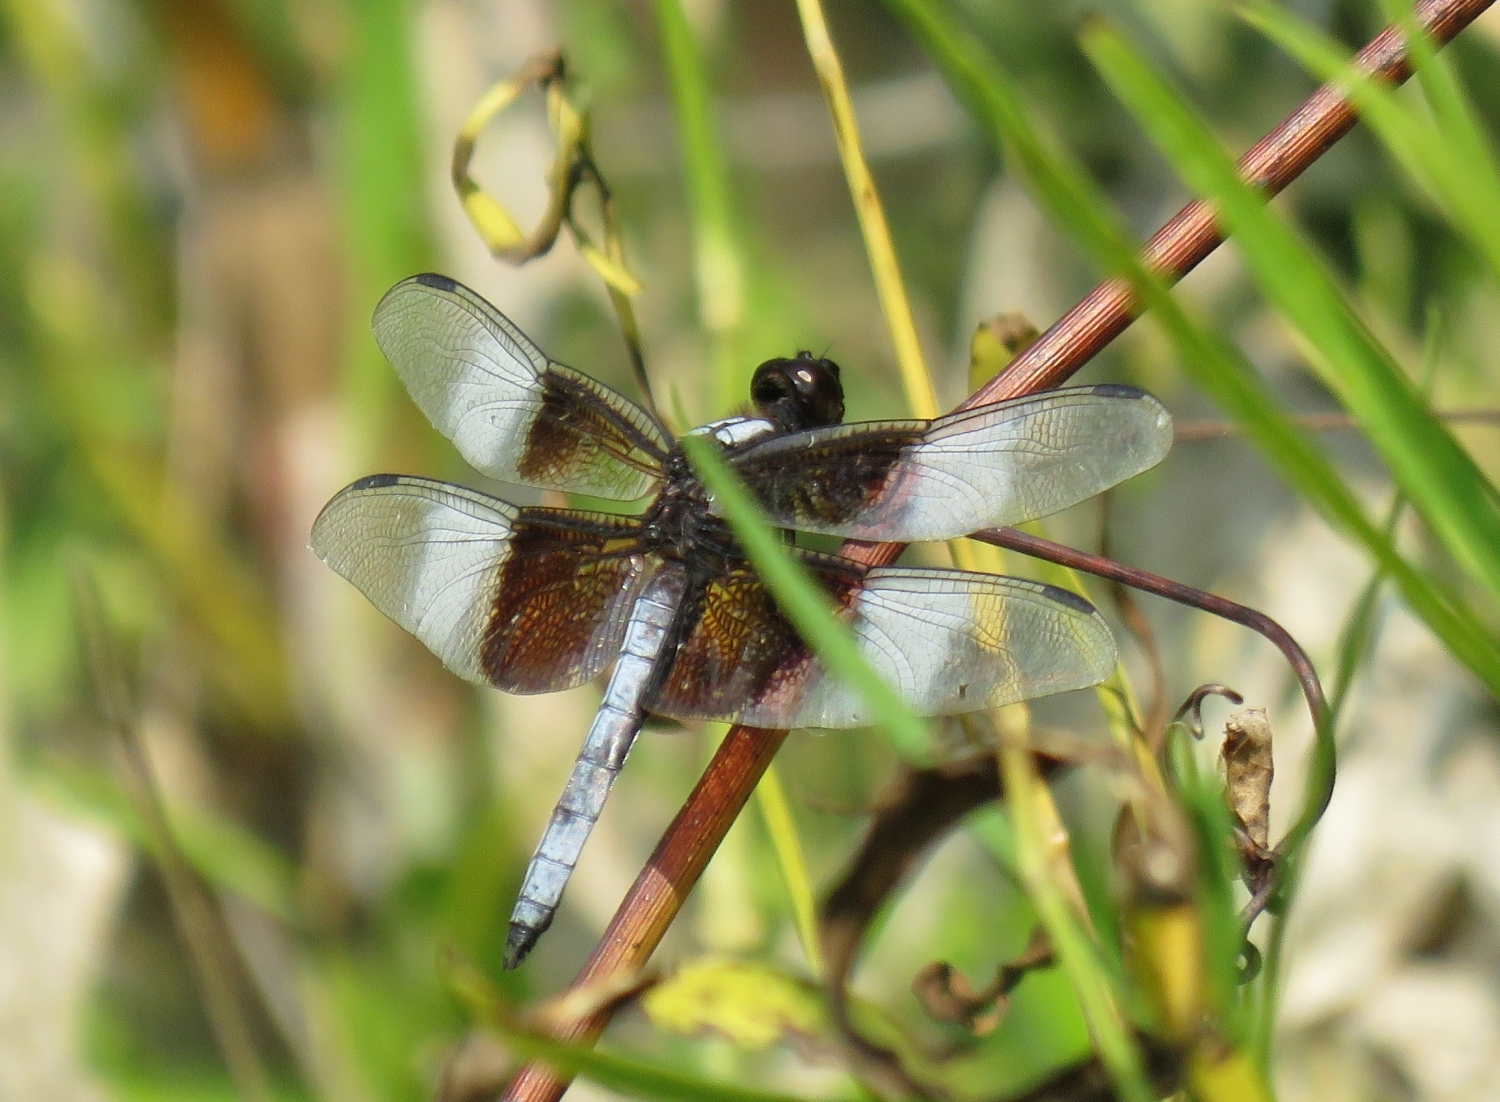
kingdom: Animalia
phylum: Arthropoda
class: Insecta
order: Odonata
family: Libellulidae
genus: Libellula
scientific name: Libellula luctuosa
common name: Widow skimmer
